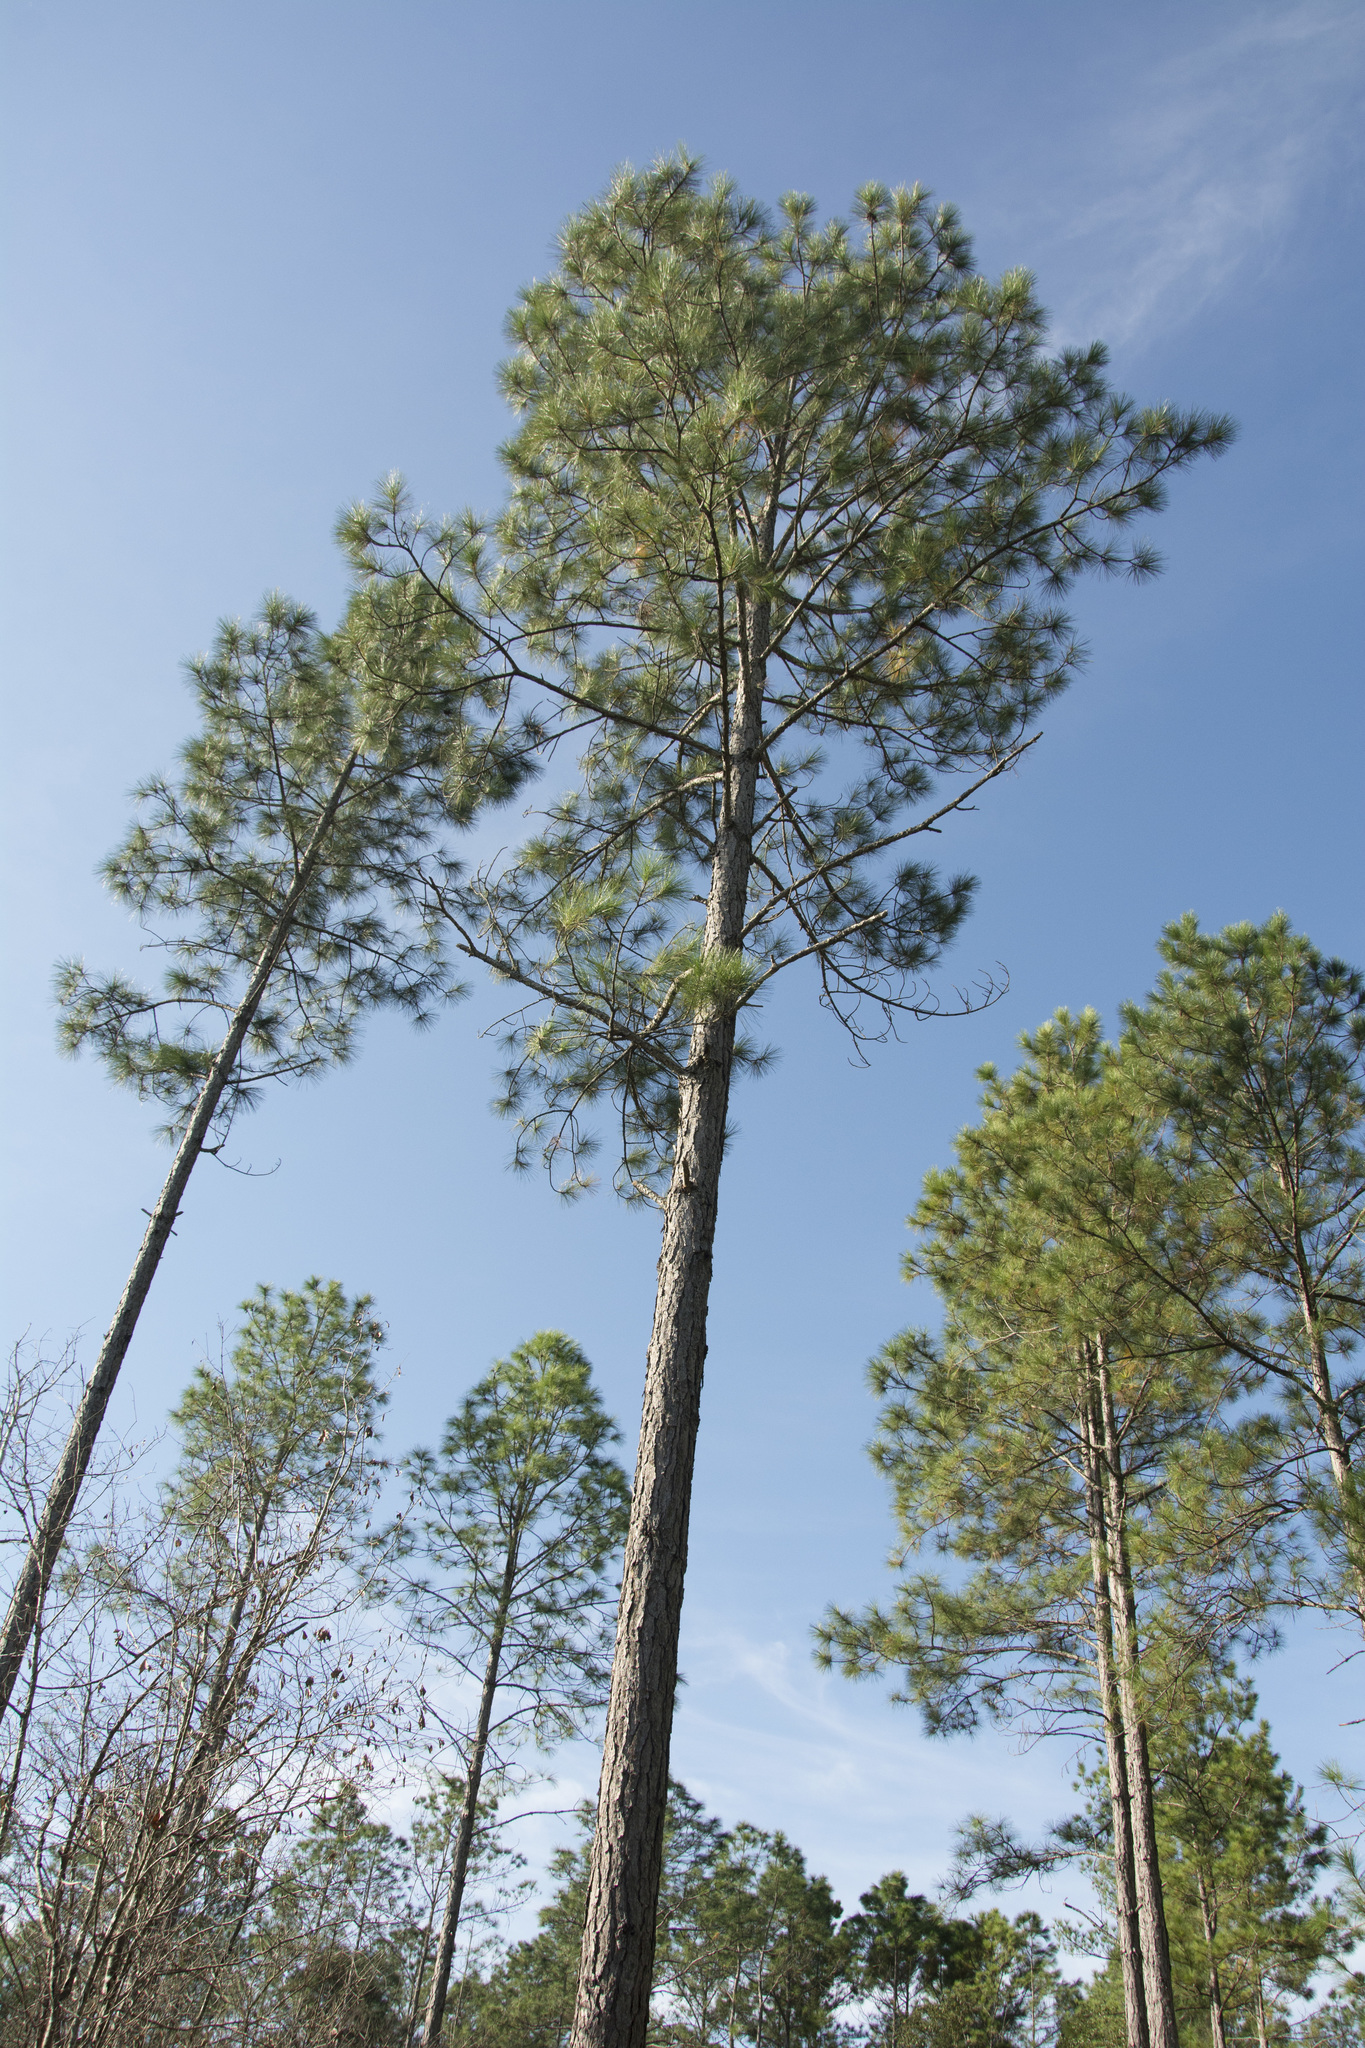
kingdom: Plantae
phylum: Tracheophyta
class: Pinopsida
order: Pinales
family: Pinaceae
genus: Pinus
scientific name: Pinus elliottii
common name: Slash pine
